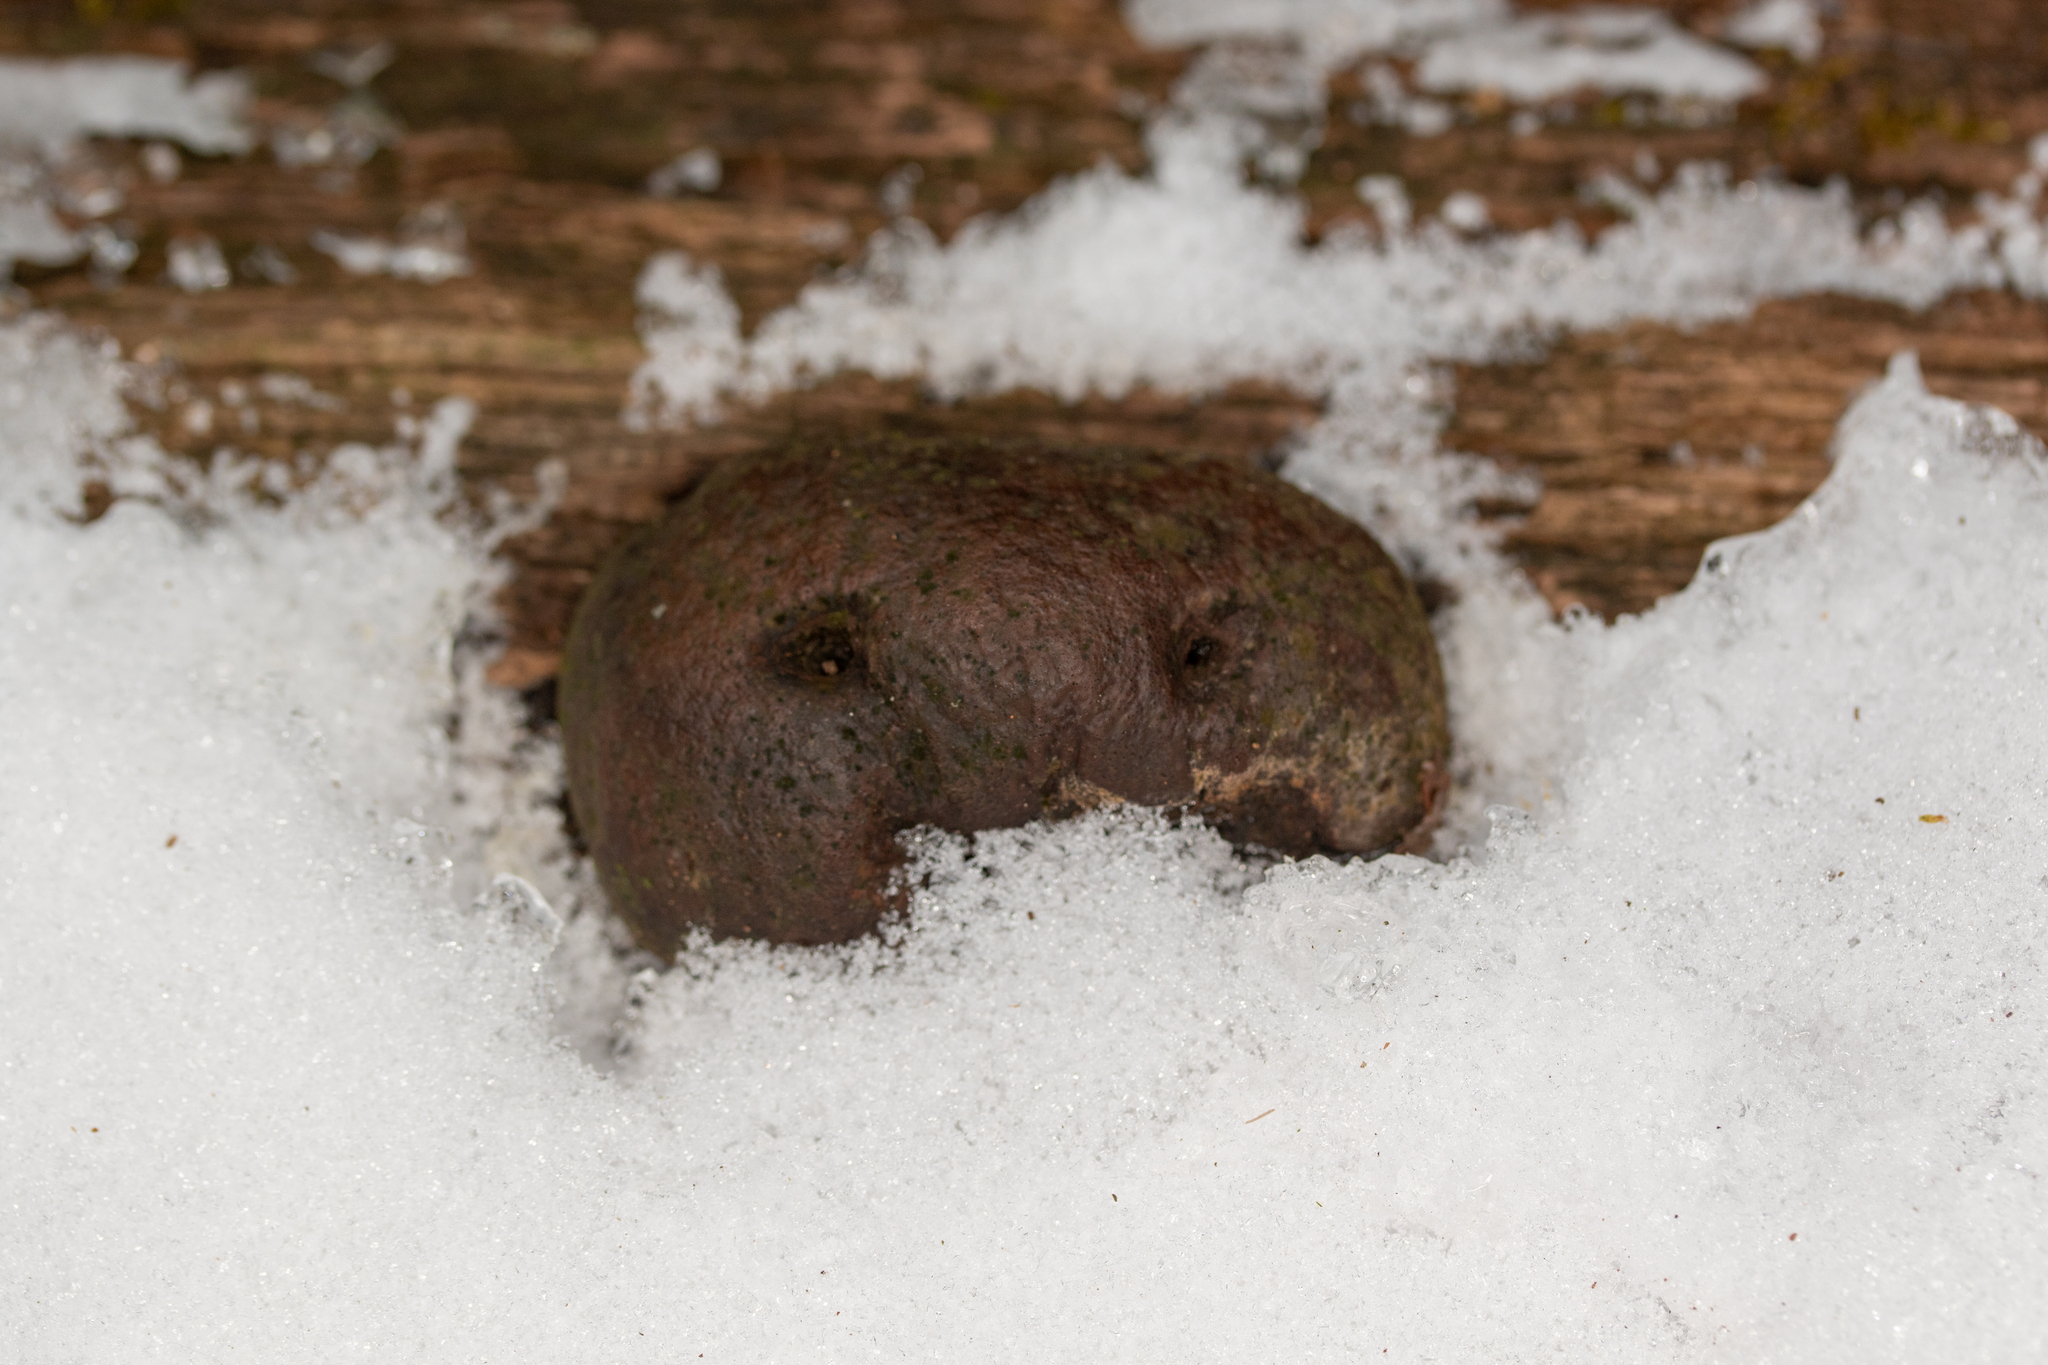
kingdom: Fungi
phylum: Ascomycota
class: Sordariomycetes
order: Boliniales
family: Boliniaceae
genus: Camarops
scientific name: Camarops petersii
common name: Dog's nose fungus
